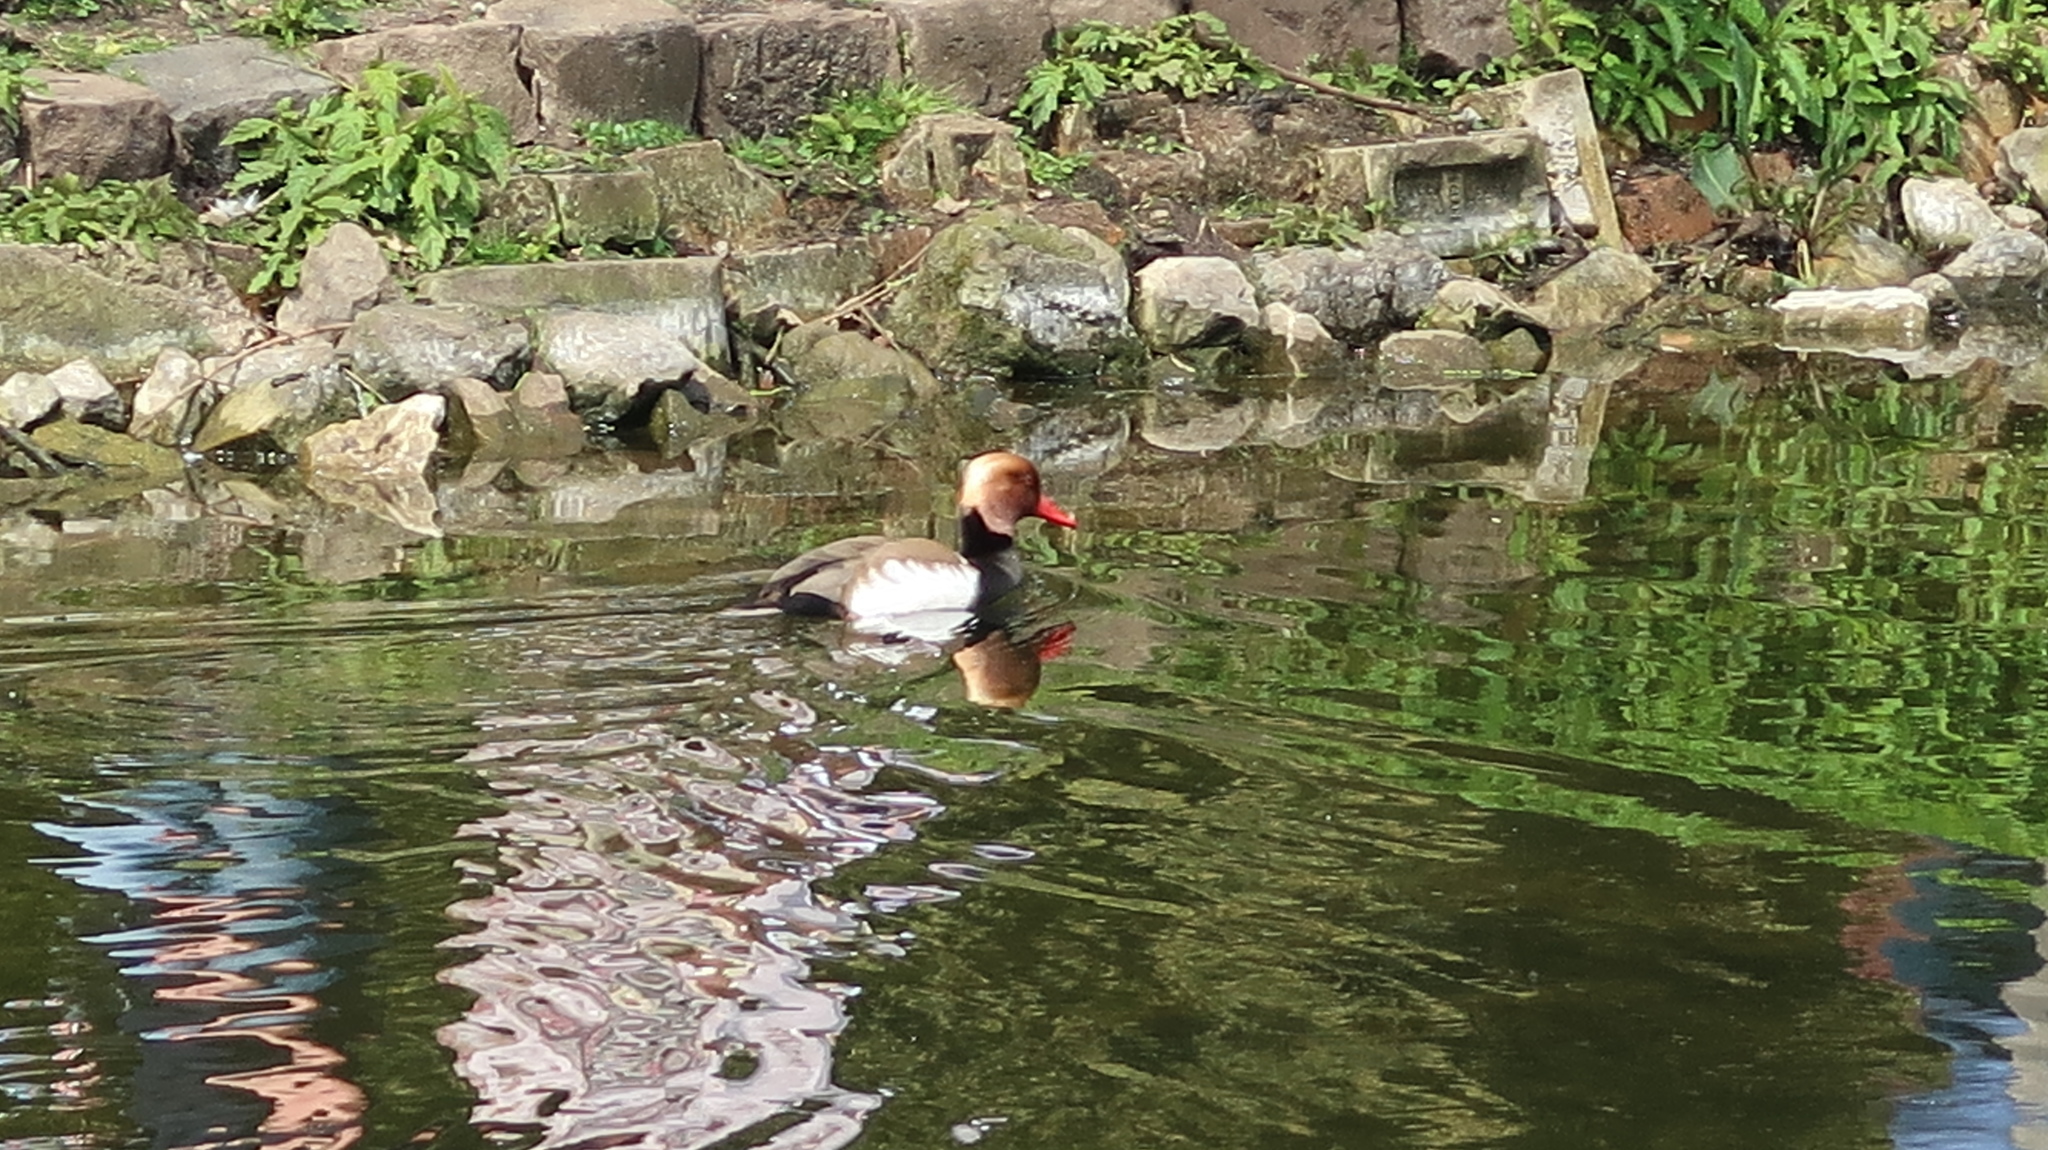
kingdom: Animalia
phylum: Chordata
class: Aves
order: Anseriformes
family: Anatidae
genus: Netta
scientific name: Netta rufina
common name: Red-crested pochard
